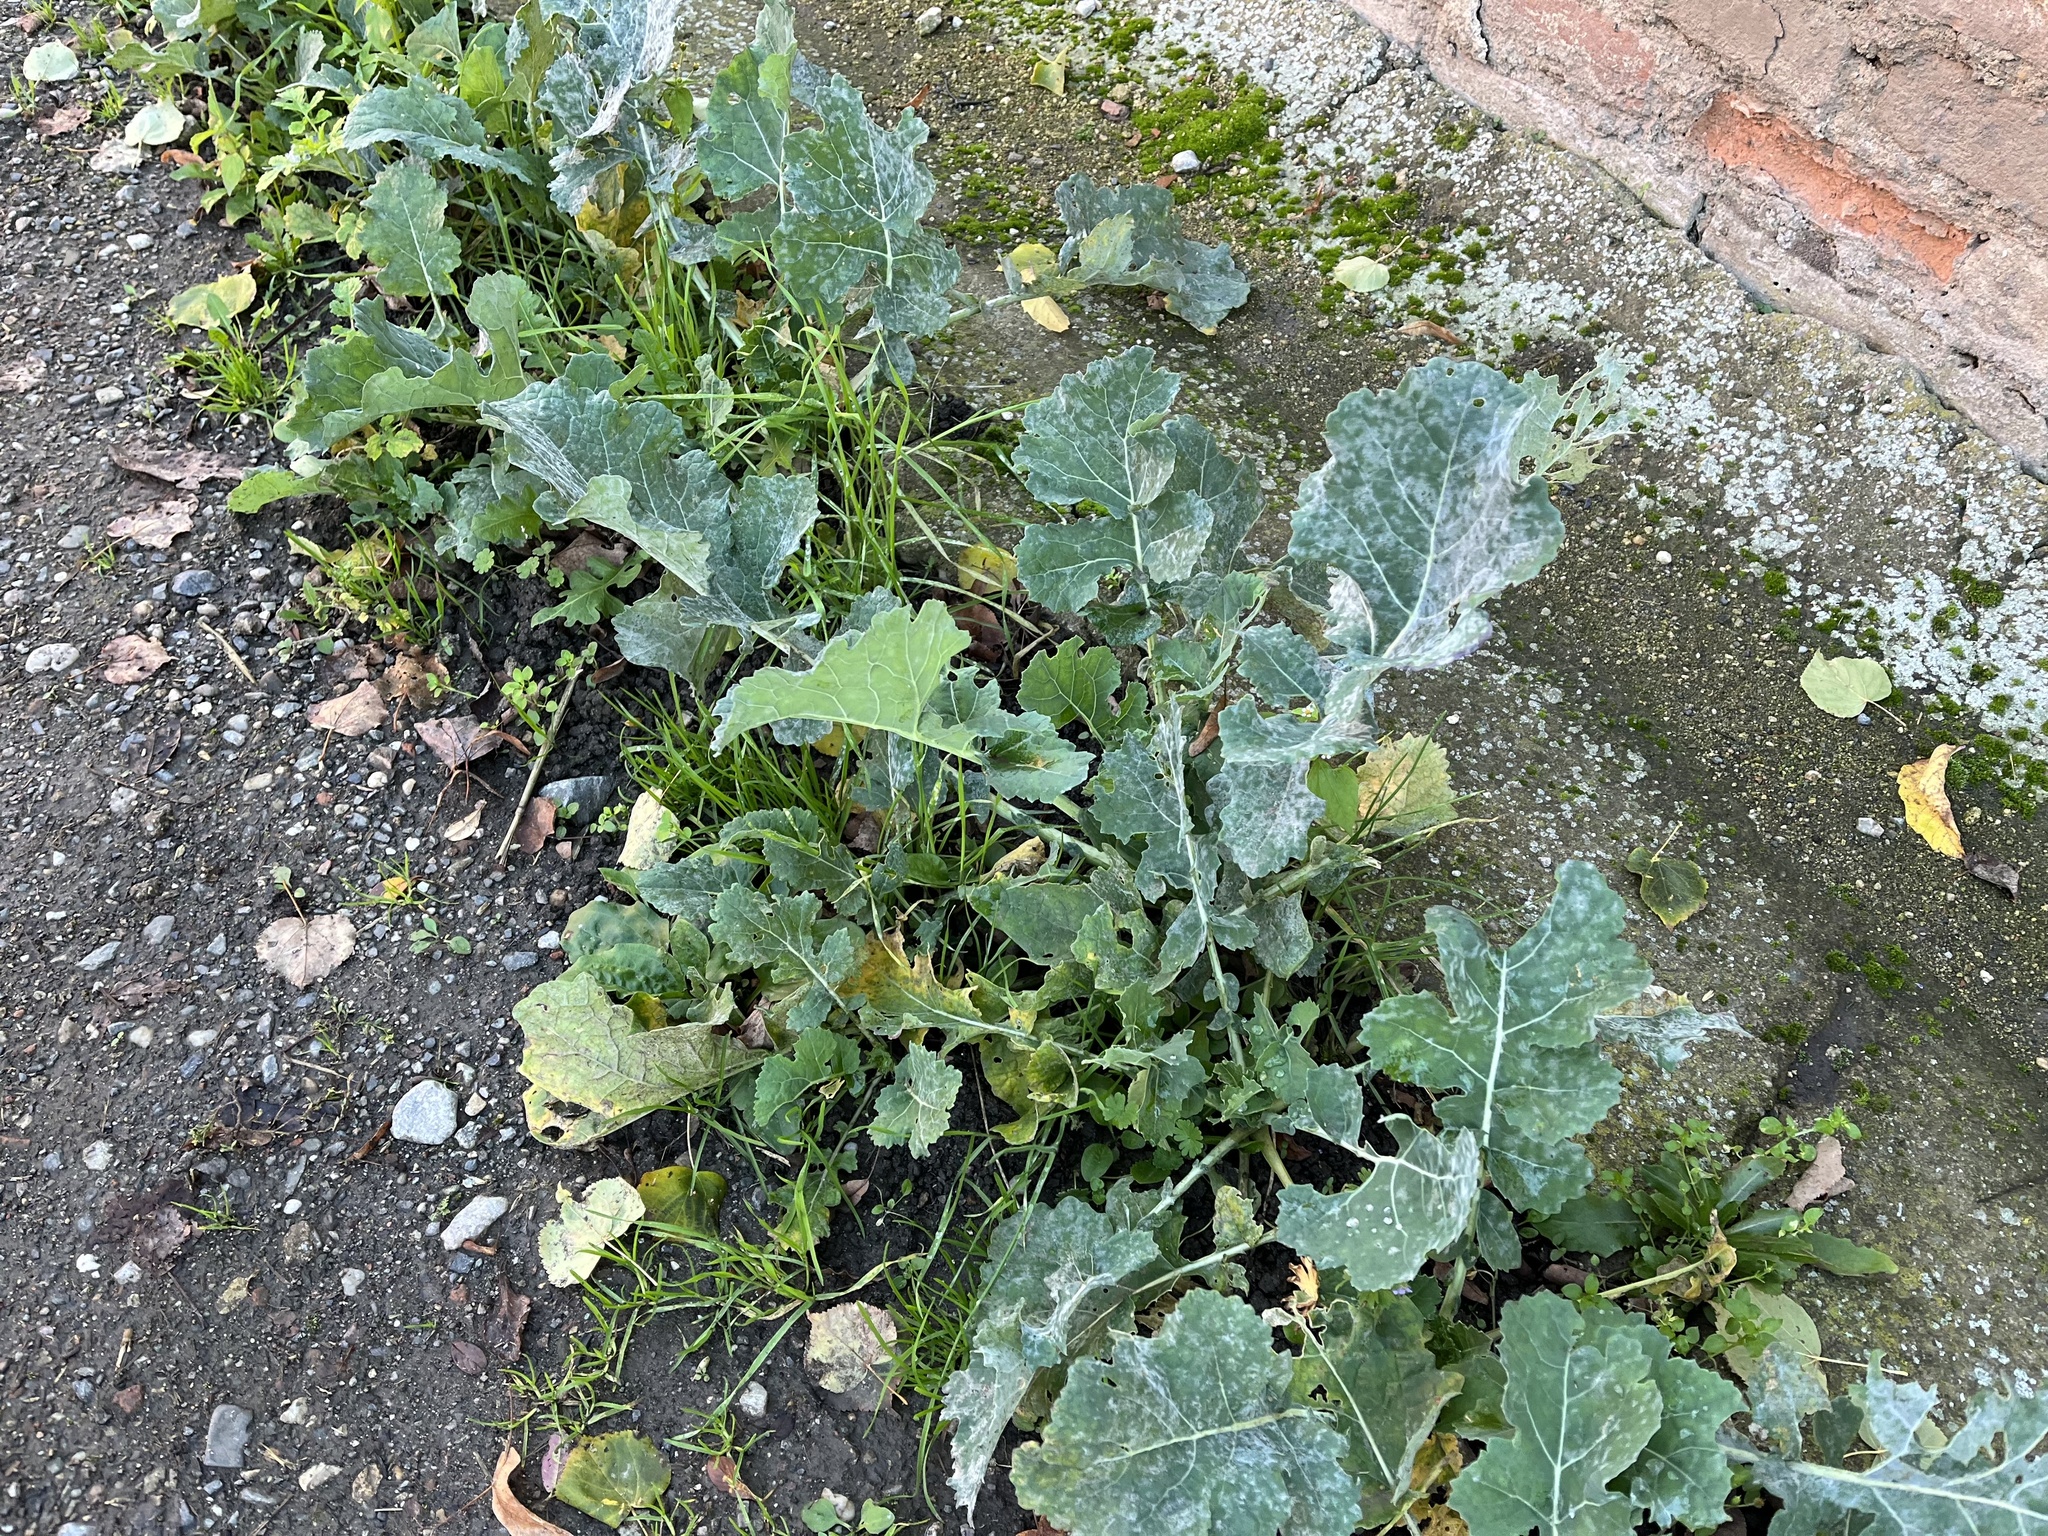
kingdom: Plantae
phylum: Tracheophyta
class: Magnoliopsida
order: Brassicales
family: Brassicaceae
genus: Brassica
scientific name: Brassica napus
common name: Rape
